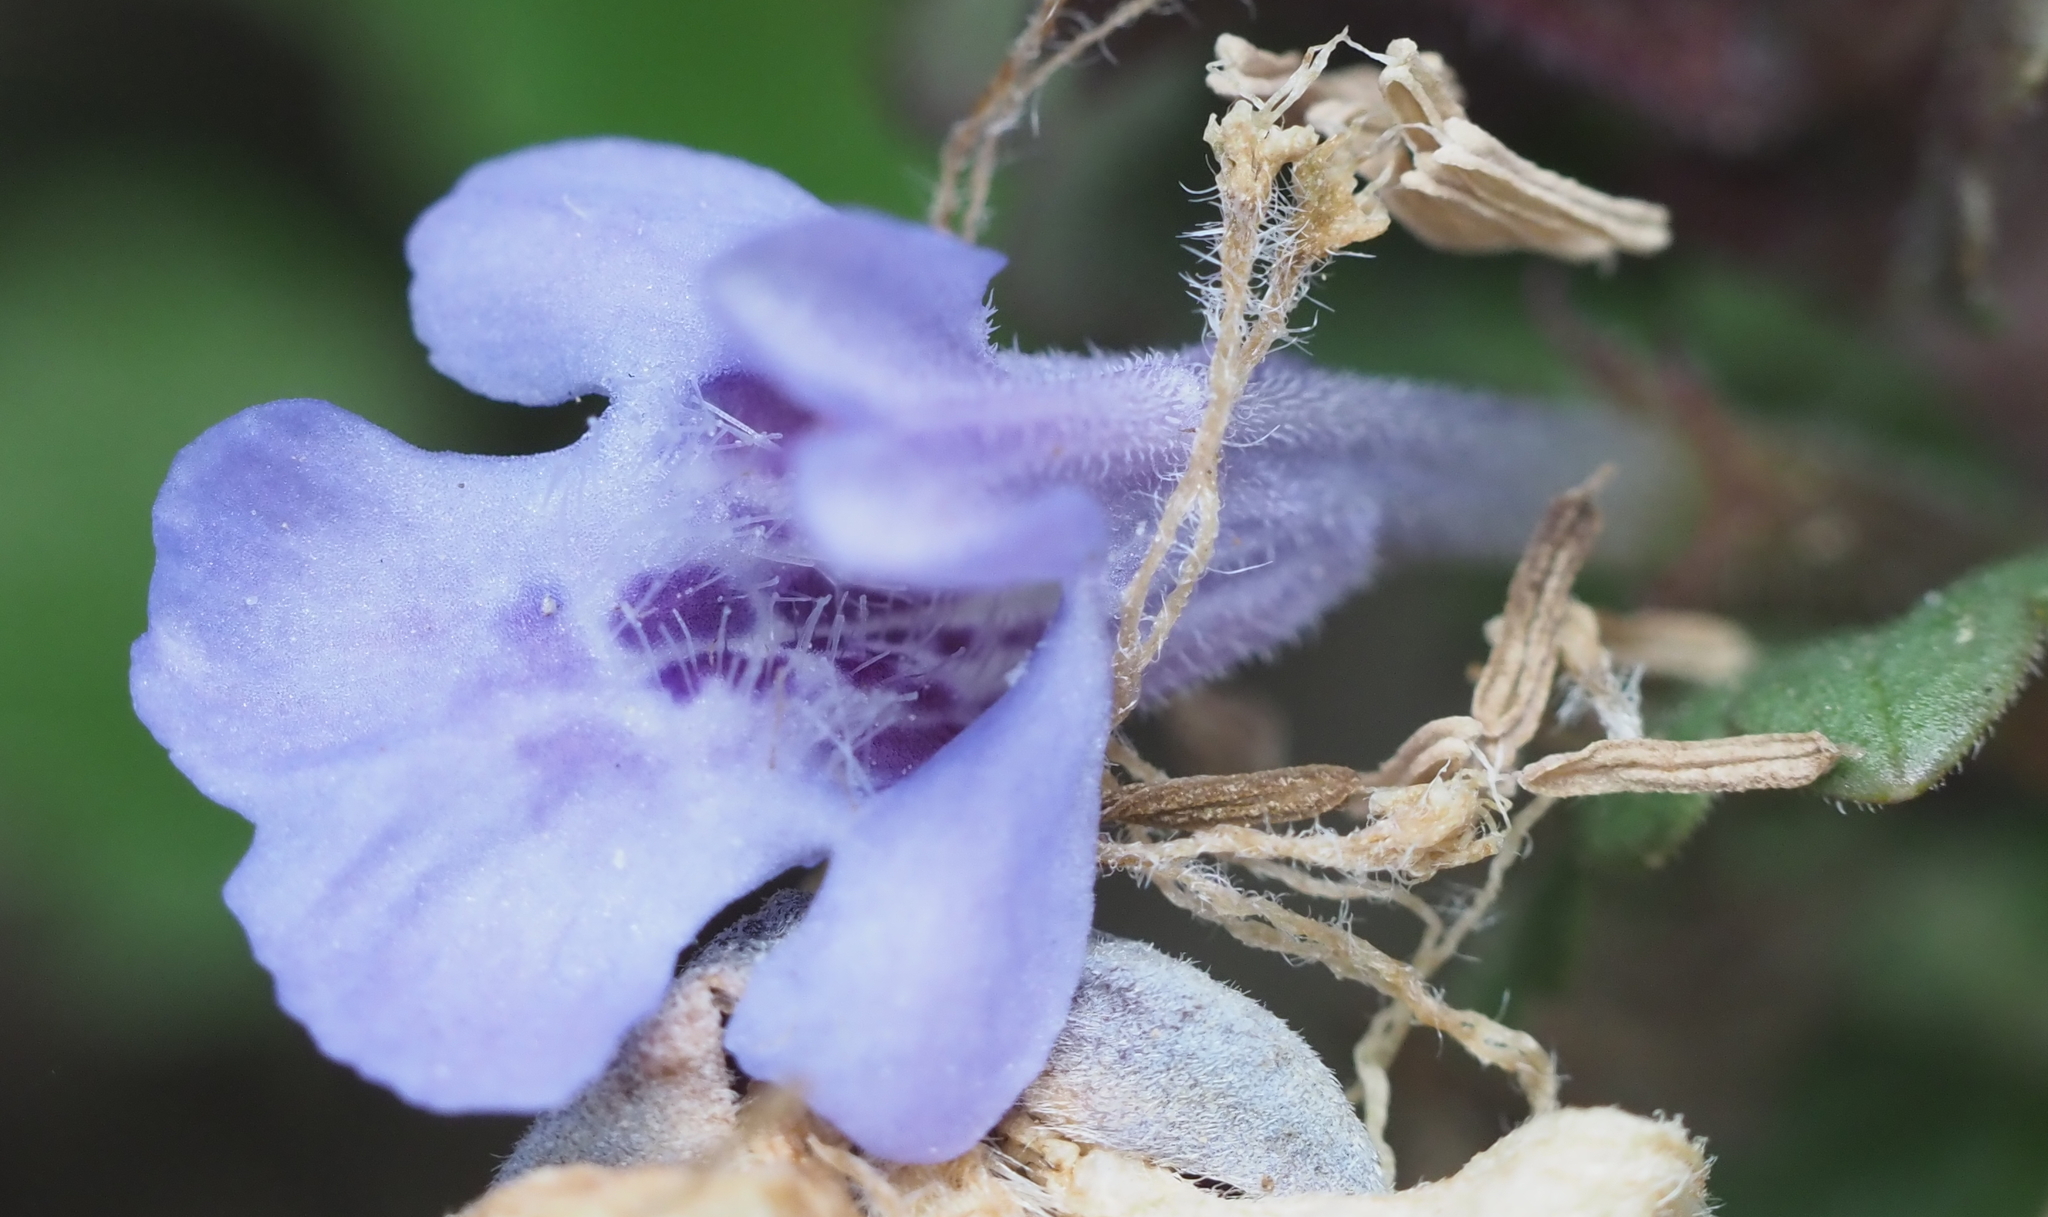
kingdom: Plantae
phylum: Tracheophyta
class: Magnoliopsida
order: Lamiales
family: Lamiaceae
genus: Glechoma
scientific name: Glechoma hederacea
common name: Ground ivy
